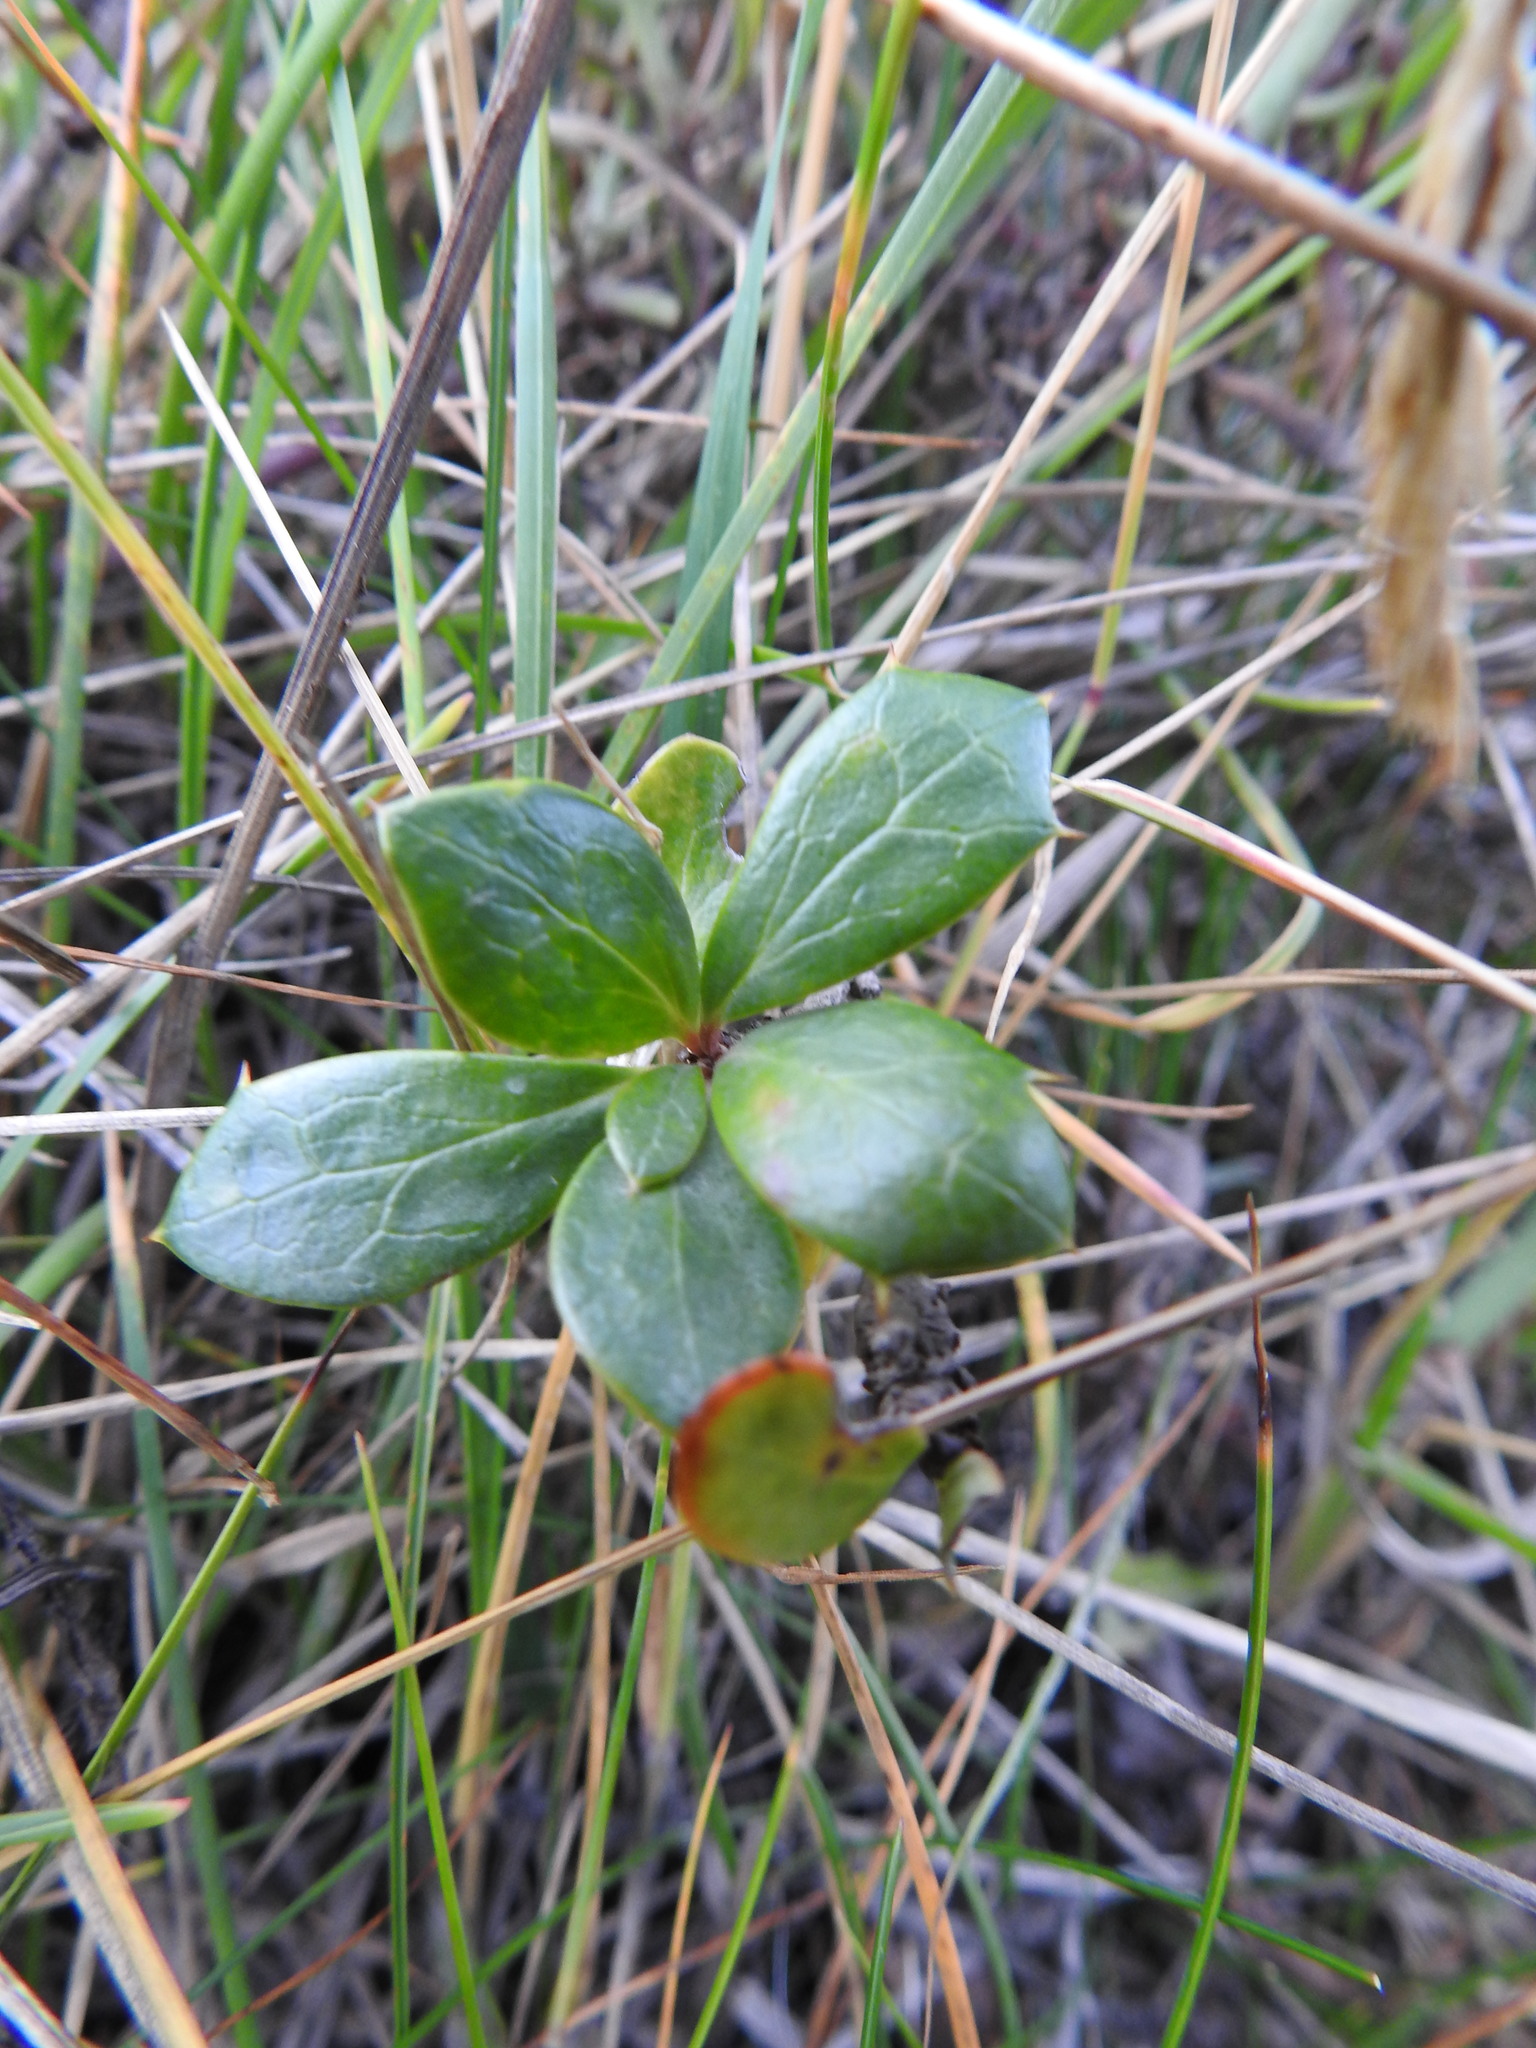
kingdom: Plantae
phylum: Tracheophyta
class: Magnoliopsida
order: Ranunculales
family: Berberidaceae
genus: Berberis
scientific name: Berberis ilicifolia
